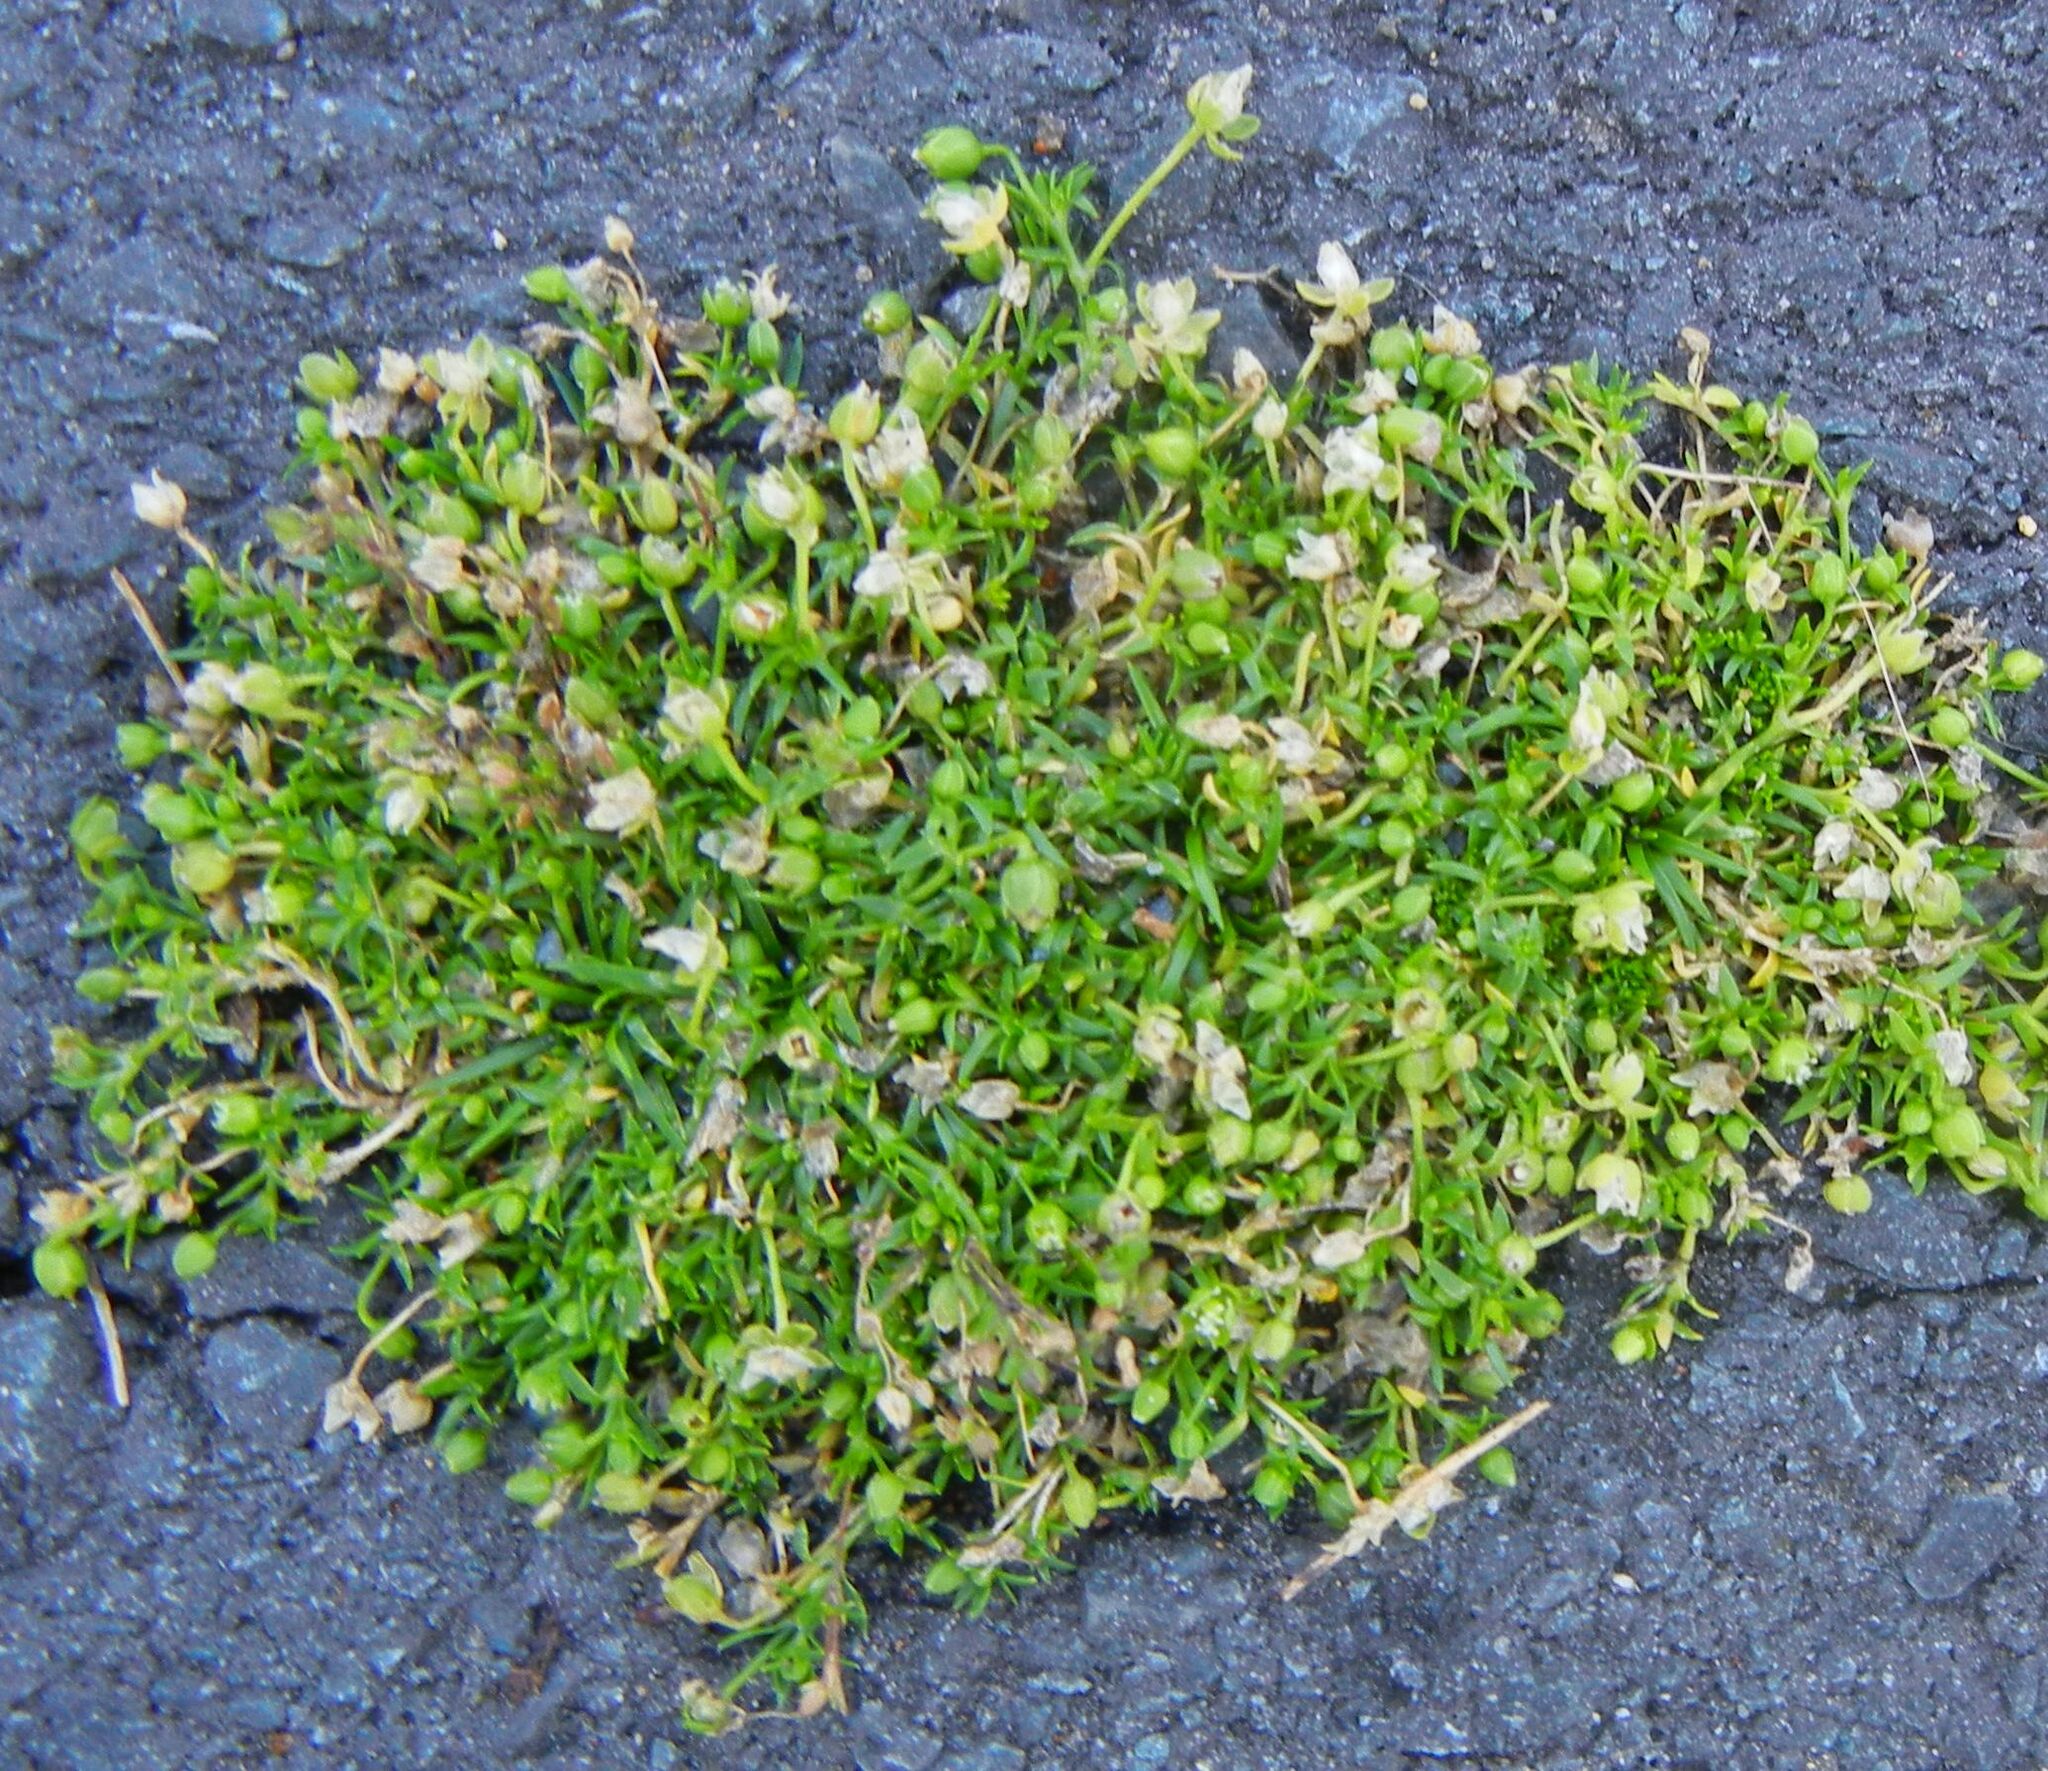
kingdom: Plantae
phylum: Tracheophyta
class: Magnoliopsida
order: Caryophyllales
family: Caryophyllaceae
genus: Sagina
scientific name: Sagina procumbens
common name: Procumbent pearlwort
